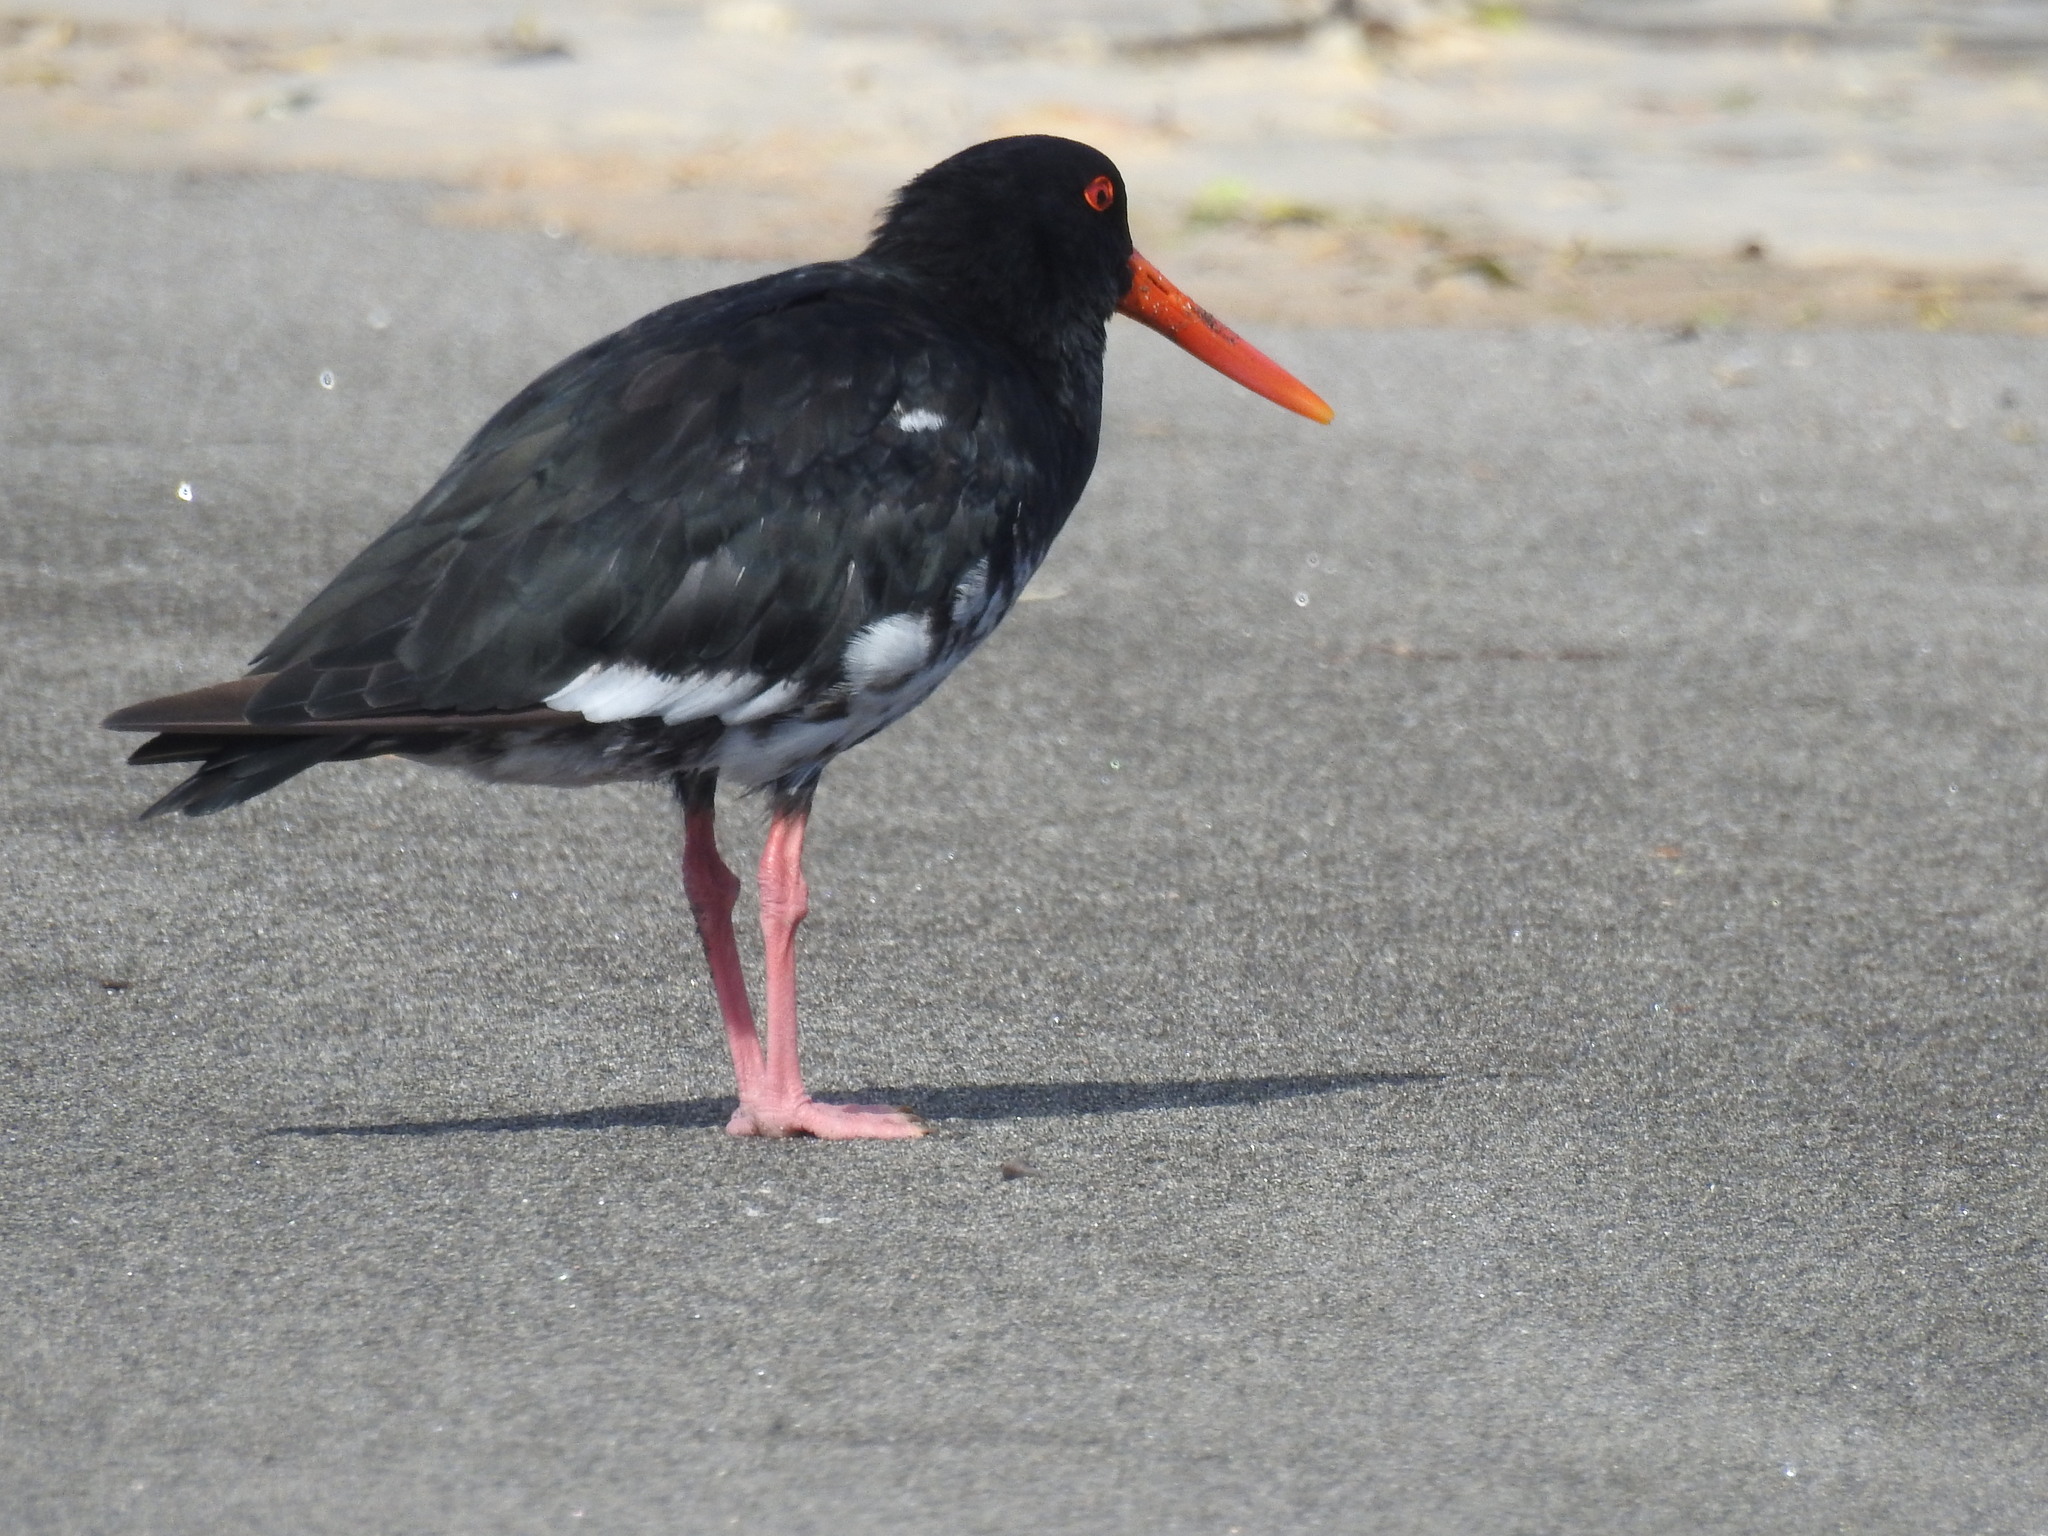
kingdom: Animalia
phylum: Chordata
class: Aves
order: Charadriiformes
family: Haematopodidae
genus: Haematopus
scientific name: Haematopus unicolor
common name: Variable oystercatcher
